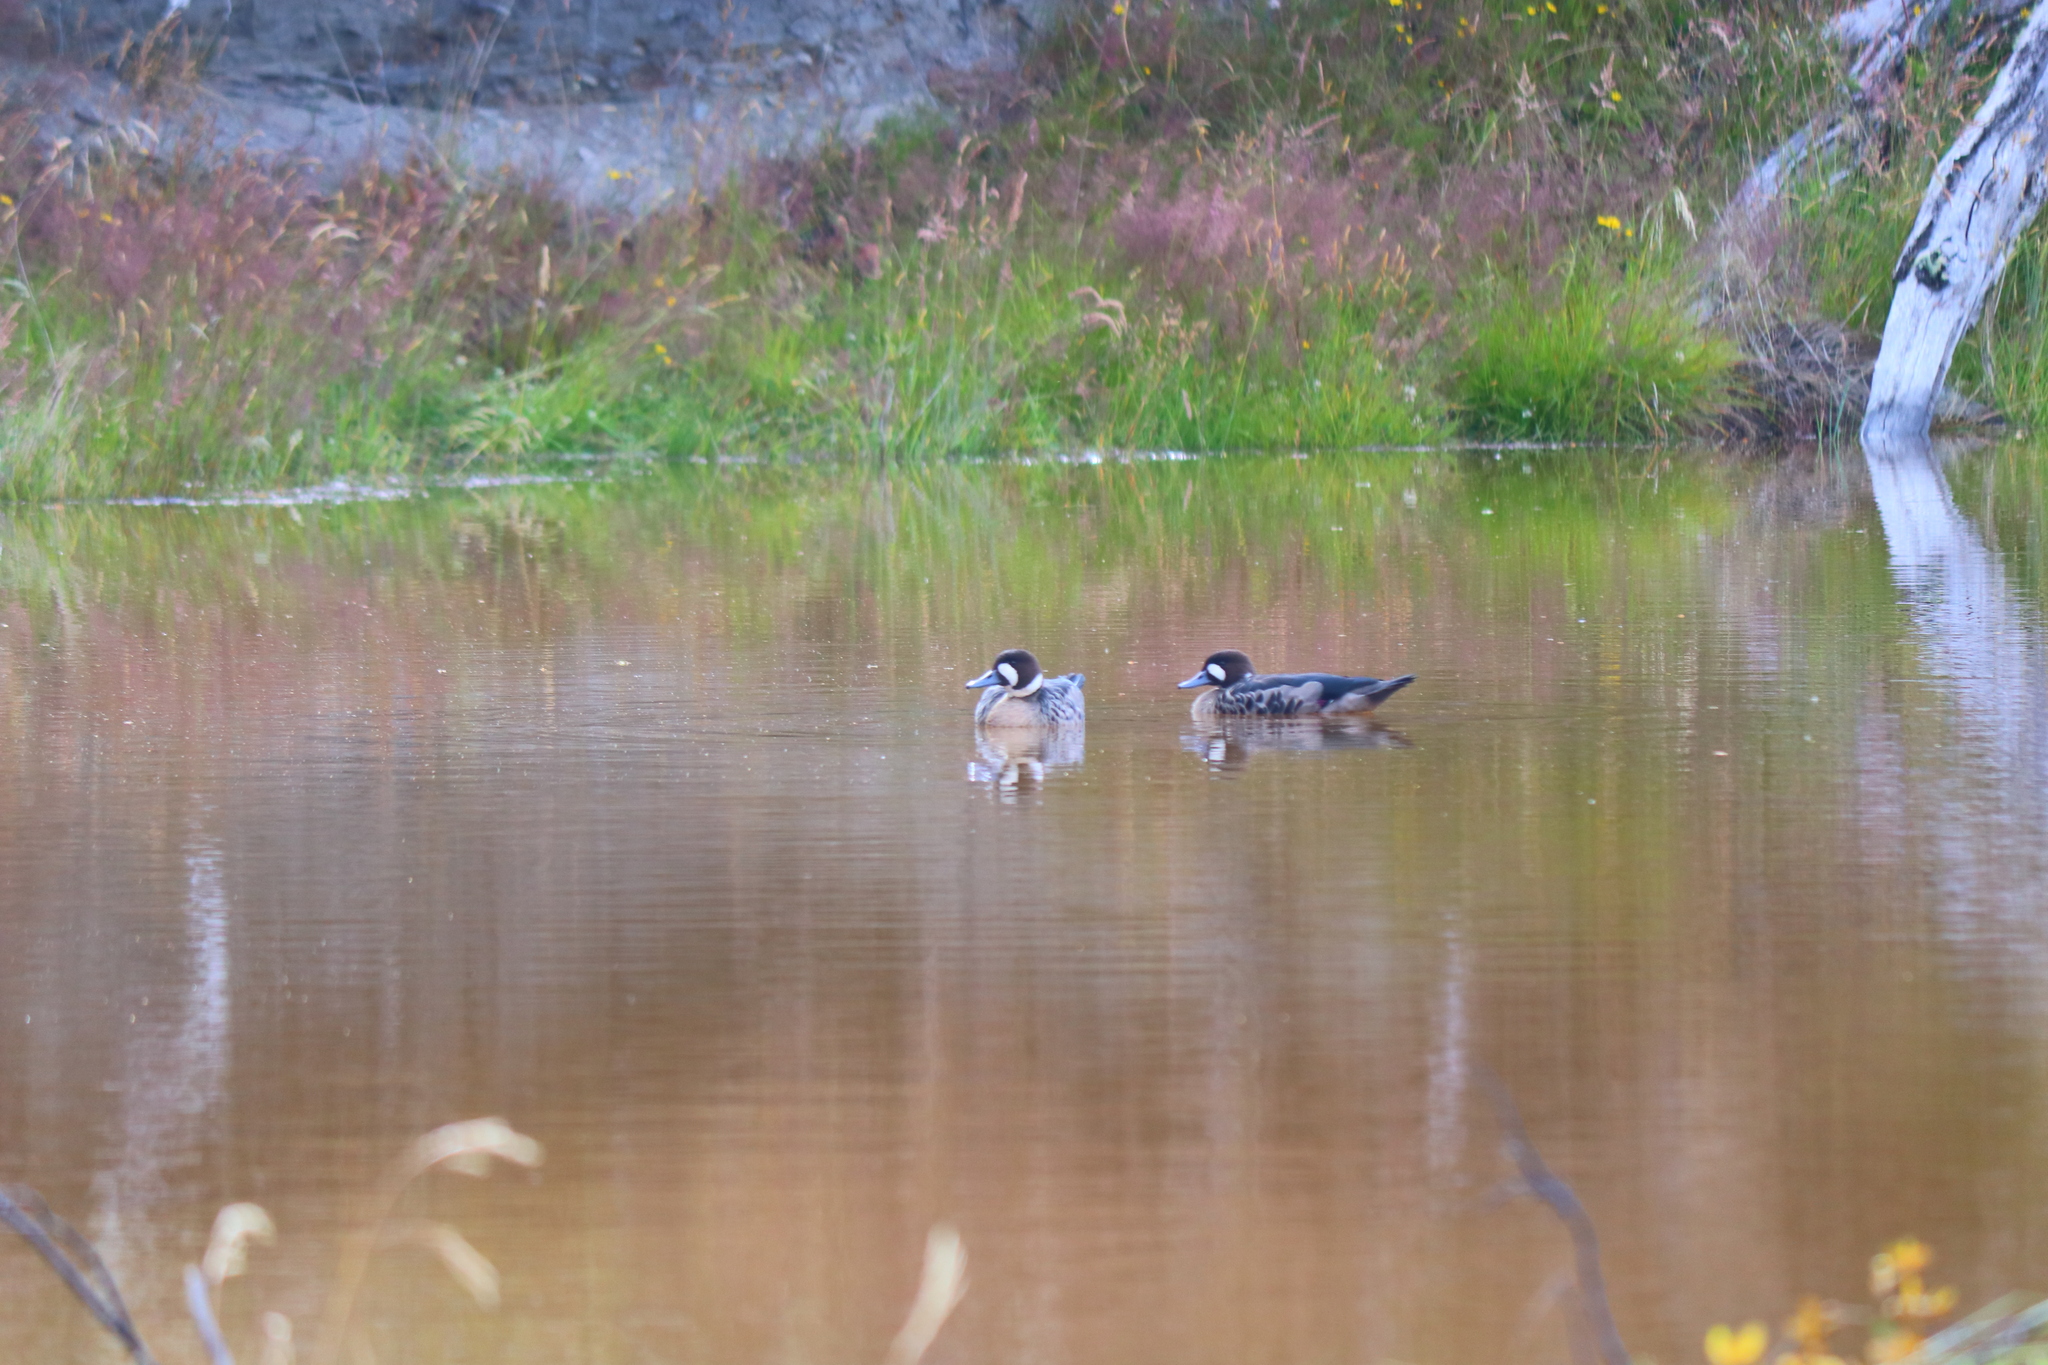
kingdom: Animalia
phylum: Chordata
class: Aves
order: Anseriformes
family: Anatidae
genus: Speculanas
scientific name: Speculanas specularis
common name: Bronze-winged duck
